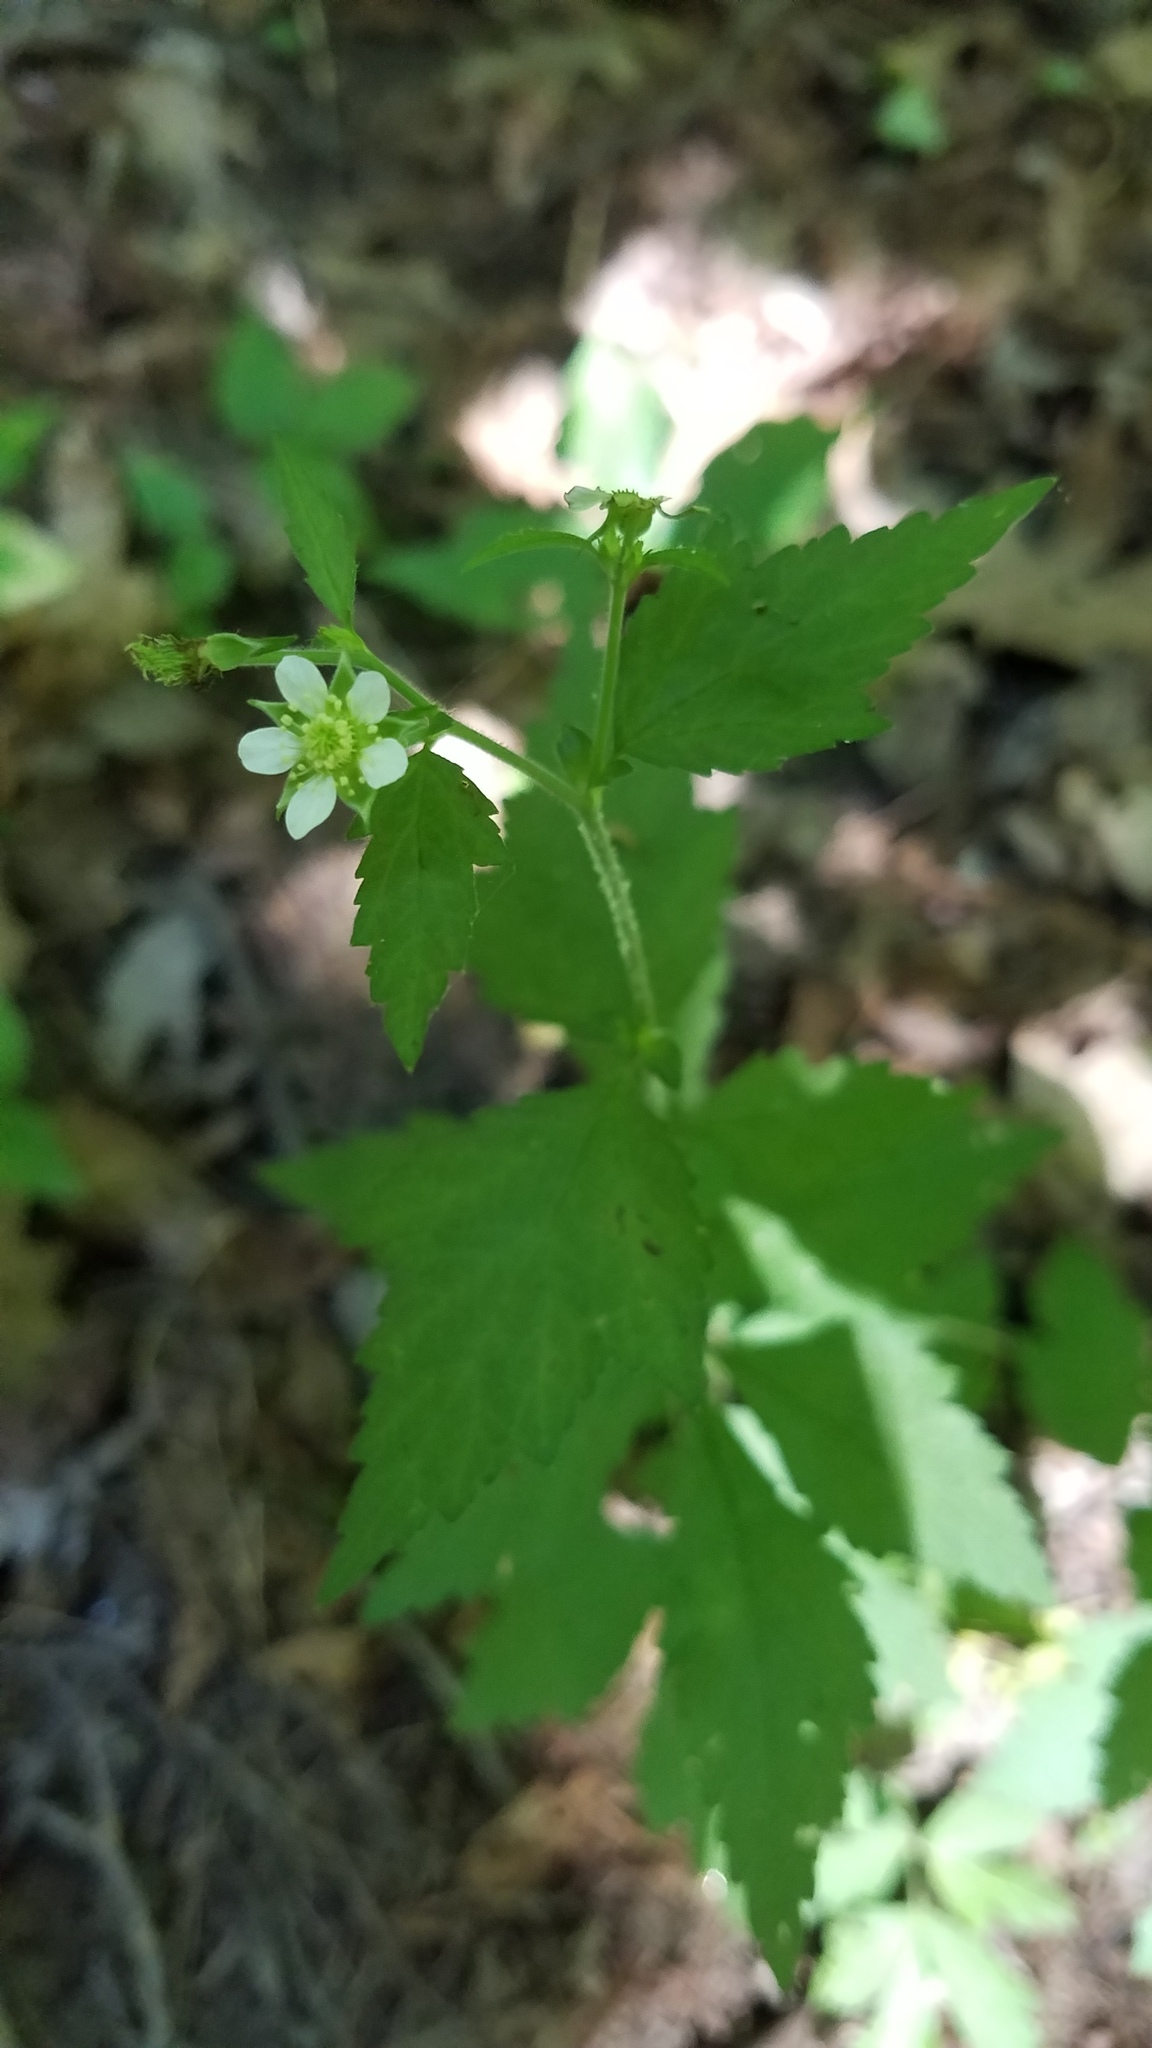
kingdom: Plantae
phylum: Tracheophyta
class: Magnoliopsida
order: Rosales
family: Rosaceae
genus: Geum
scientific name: Geum canadense
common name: White avens
